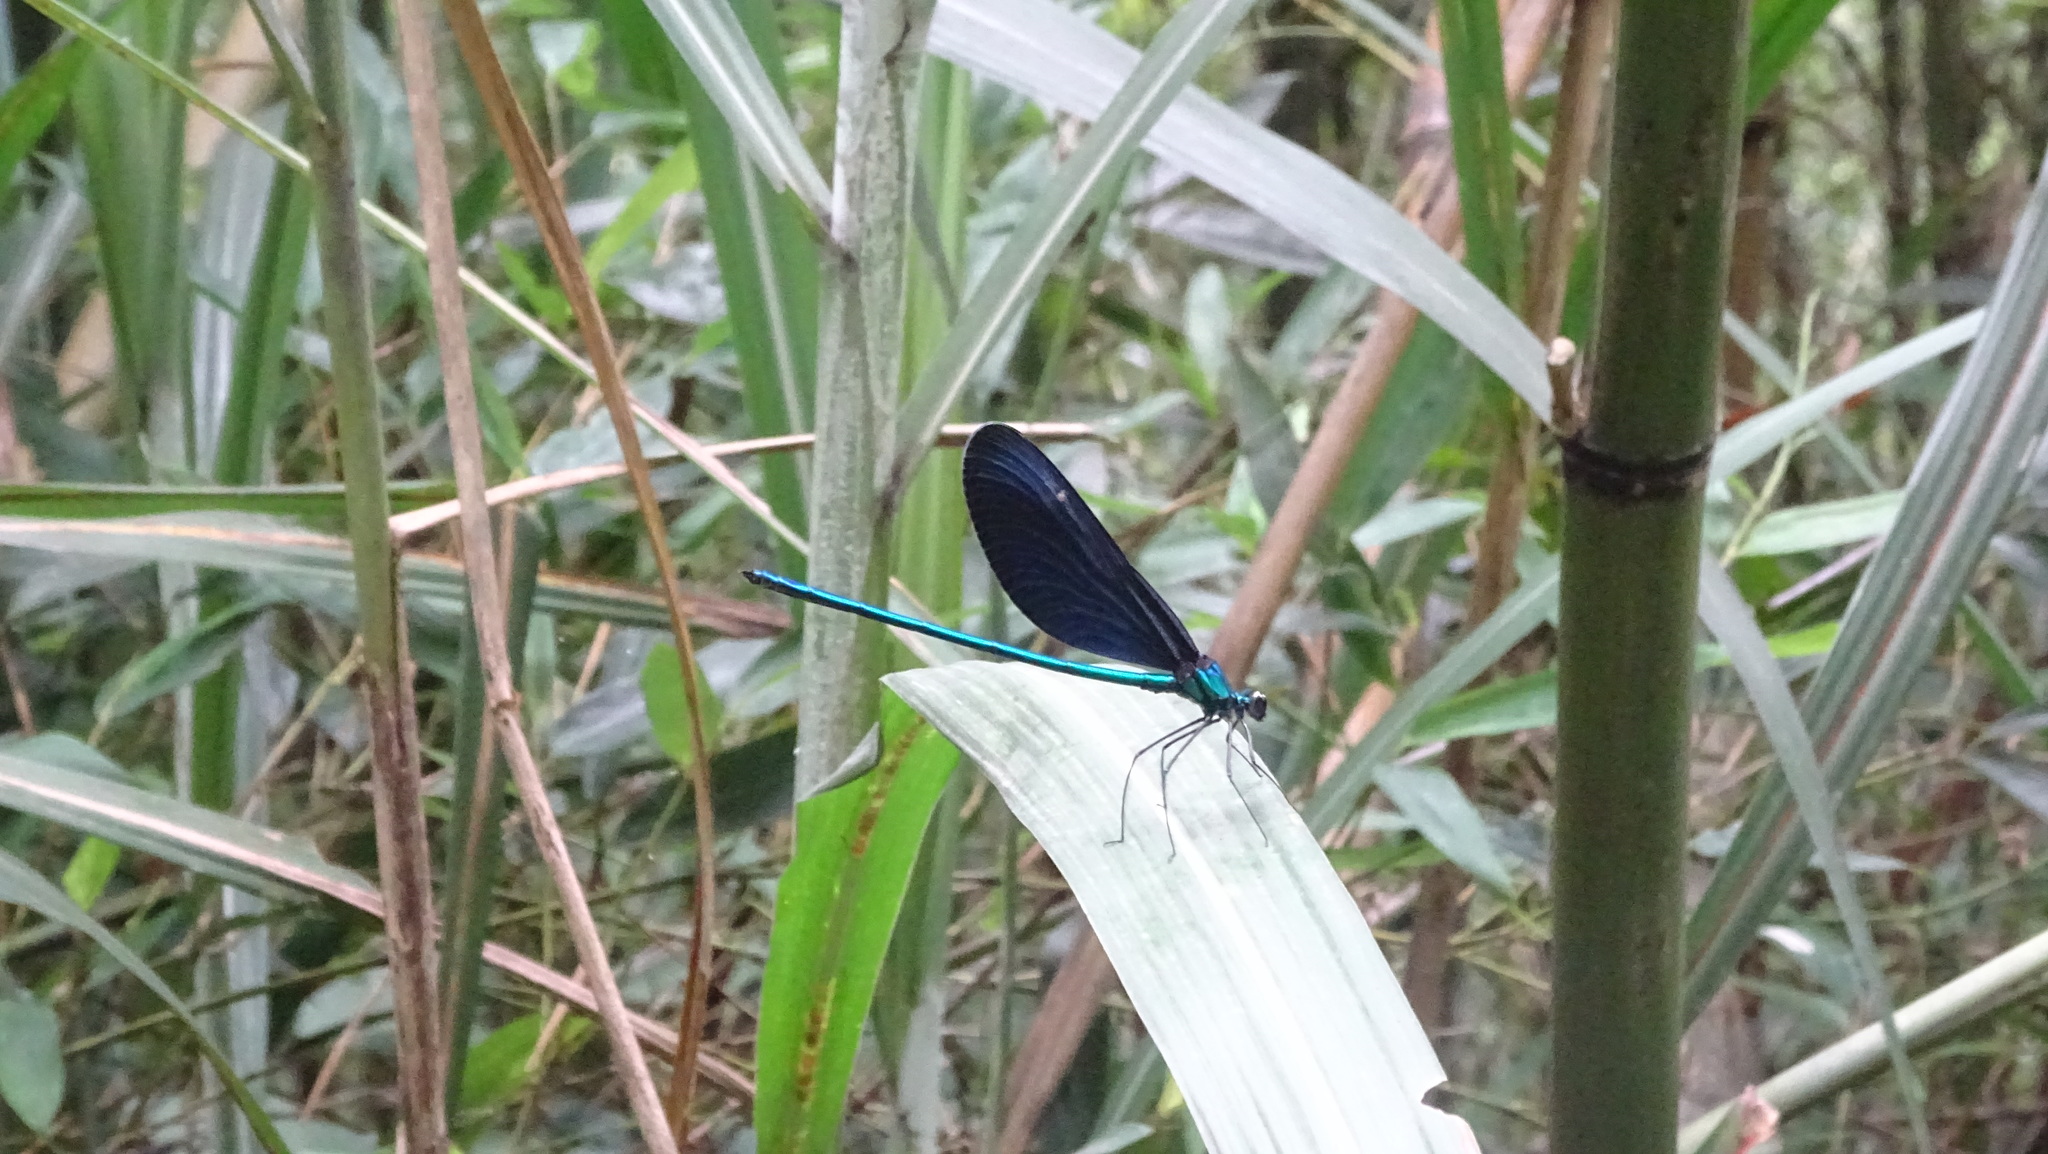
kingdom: Animalia
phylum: Arthropoda
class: Insecta
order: Odonata
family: Calopterygidae
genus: Matrona
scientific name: Matrona cyanoptera
